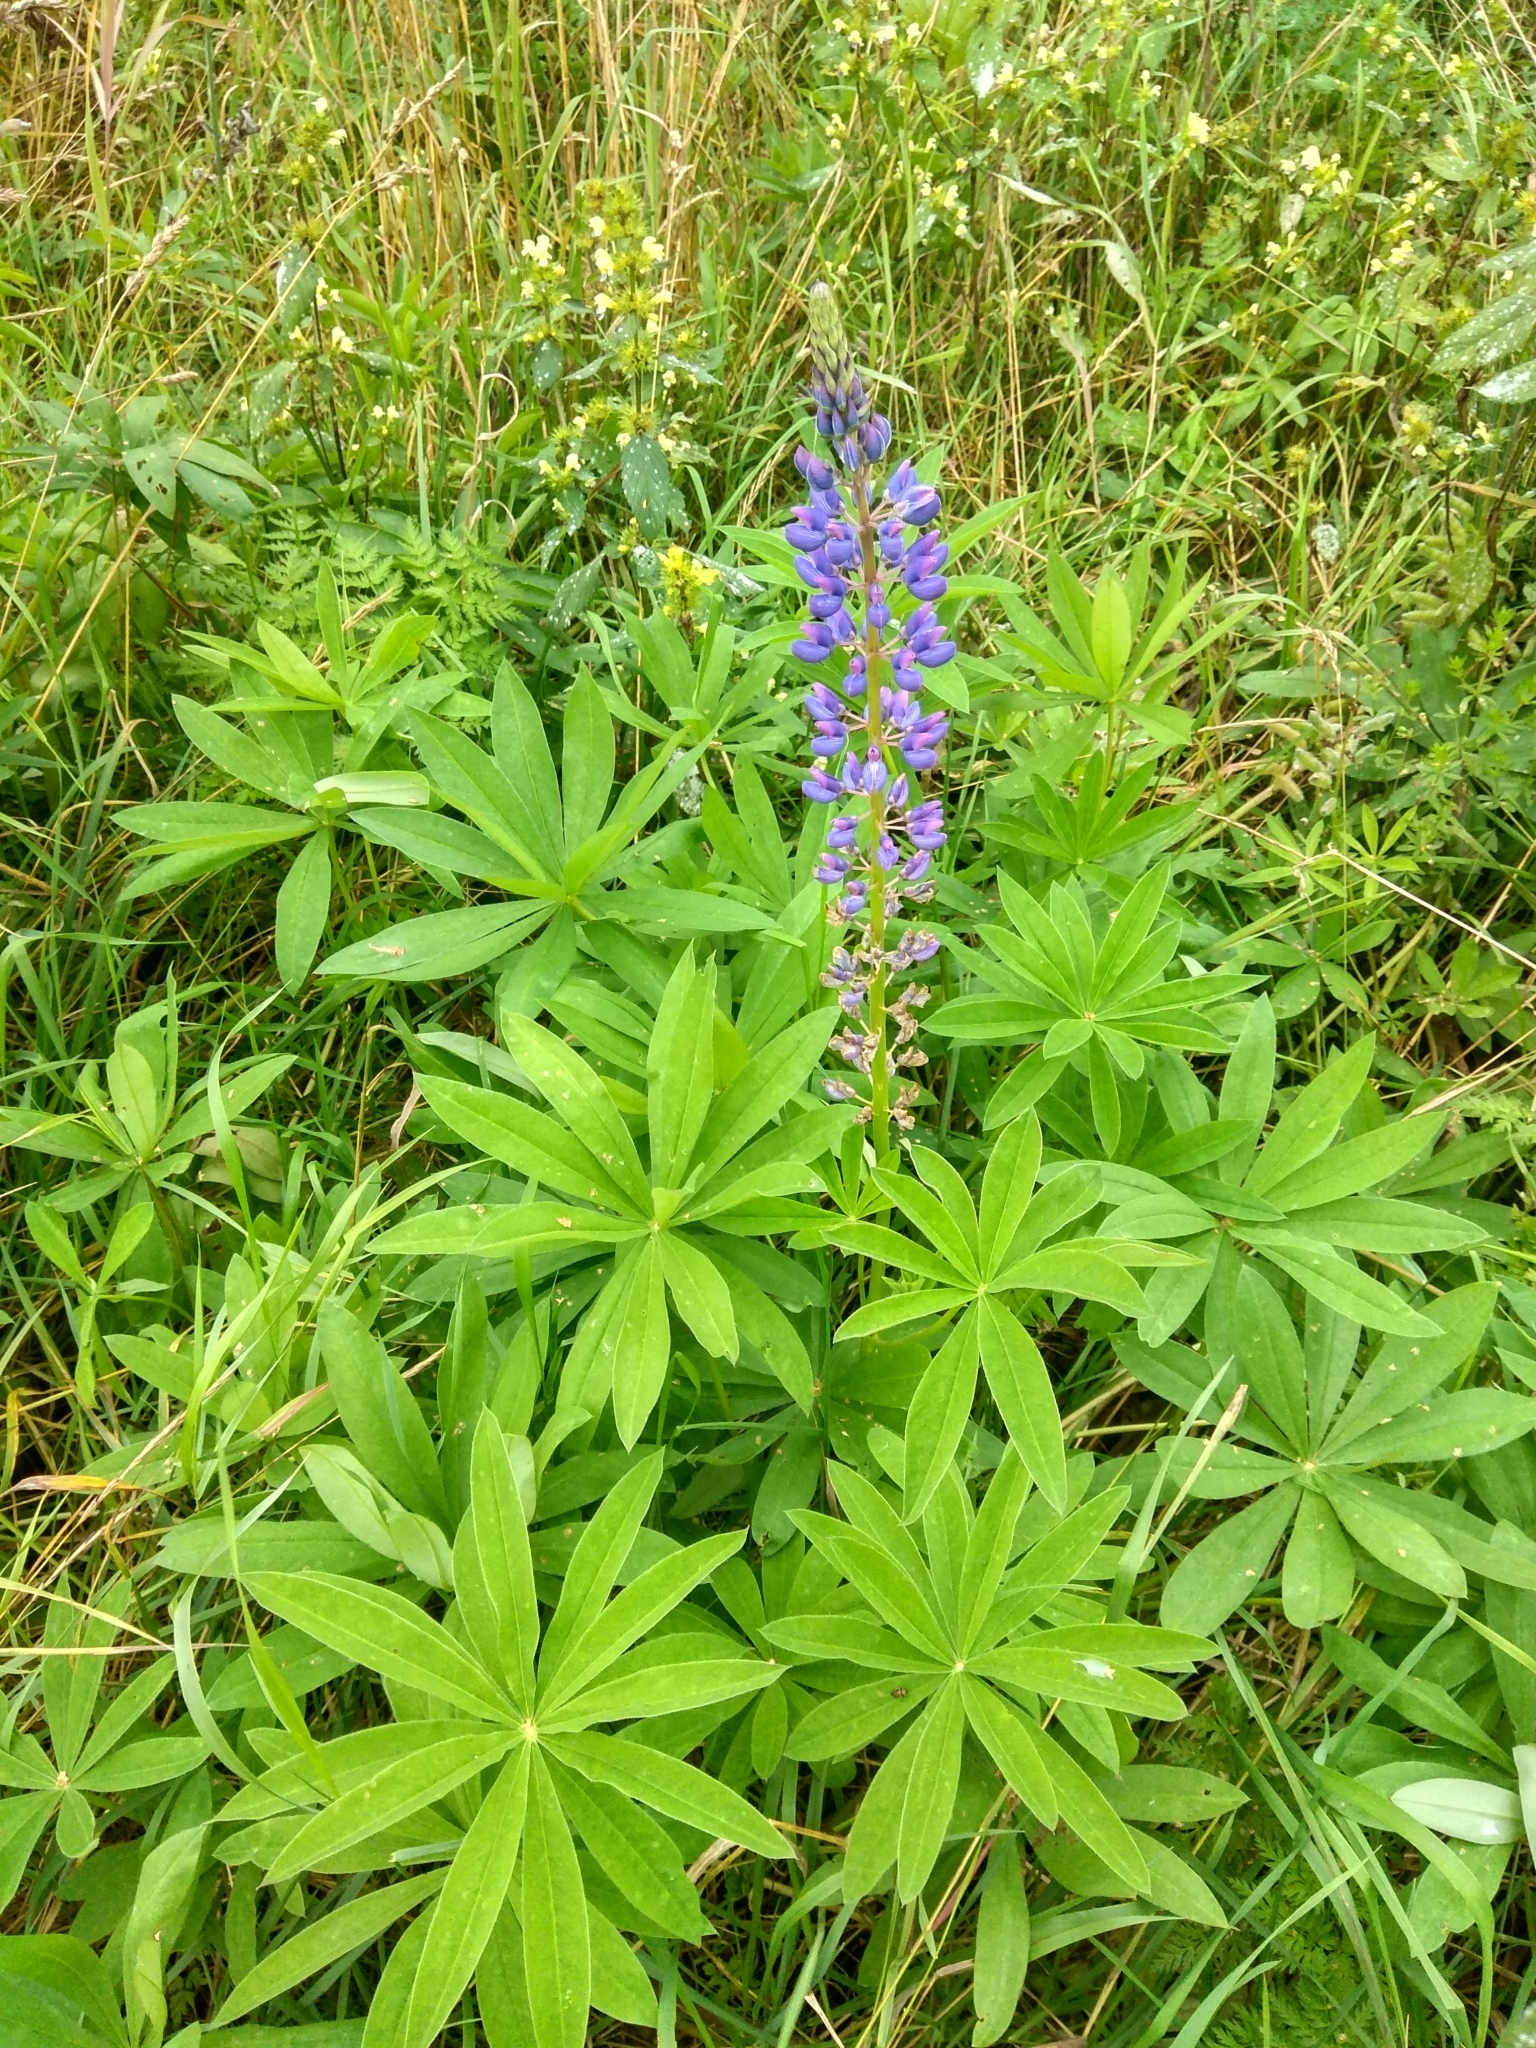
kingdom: Plantae
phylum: Tracheophyta
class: Magnoliopsida
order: Fabales
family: Fabaceae
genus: Lupinus
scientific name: Lupinus polyphyllus
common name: Garden lupin
